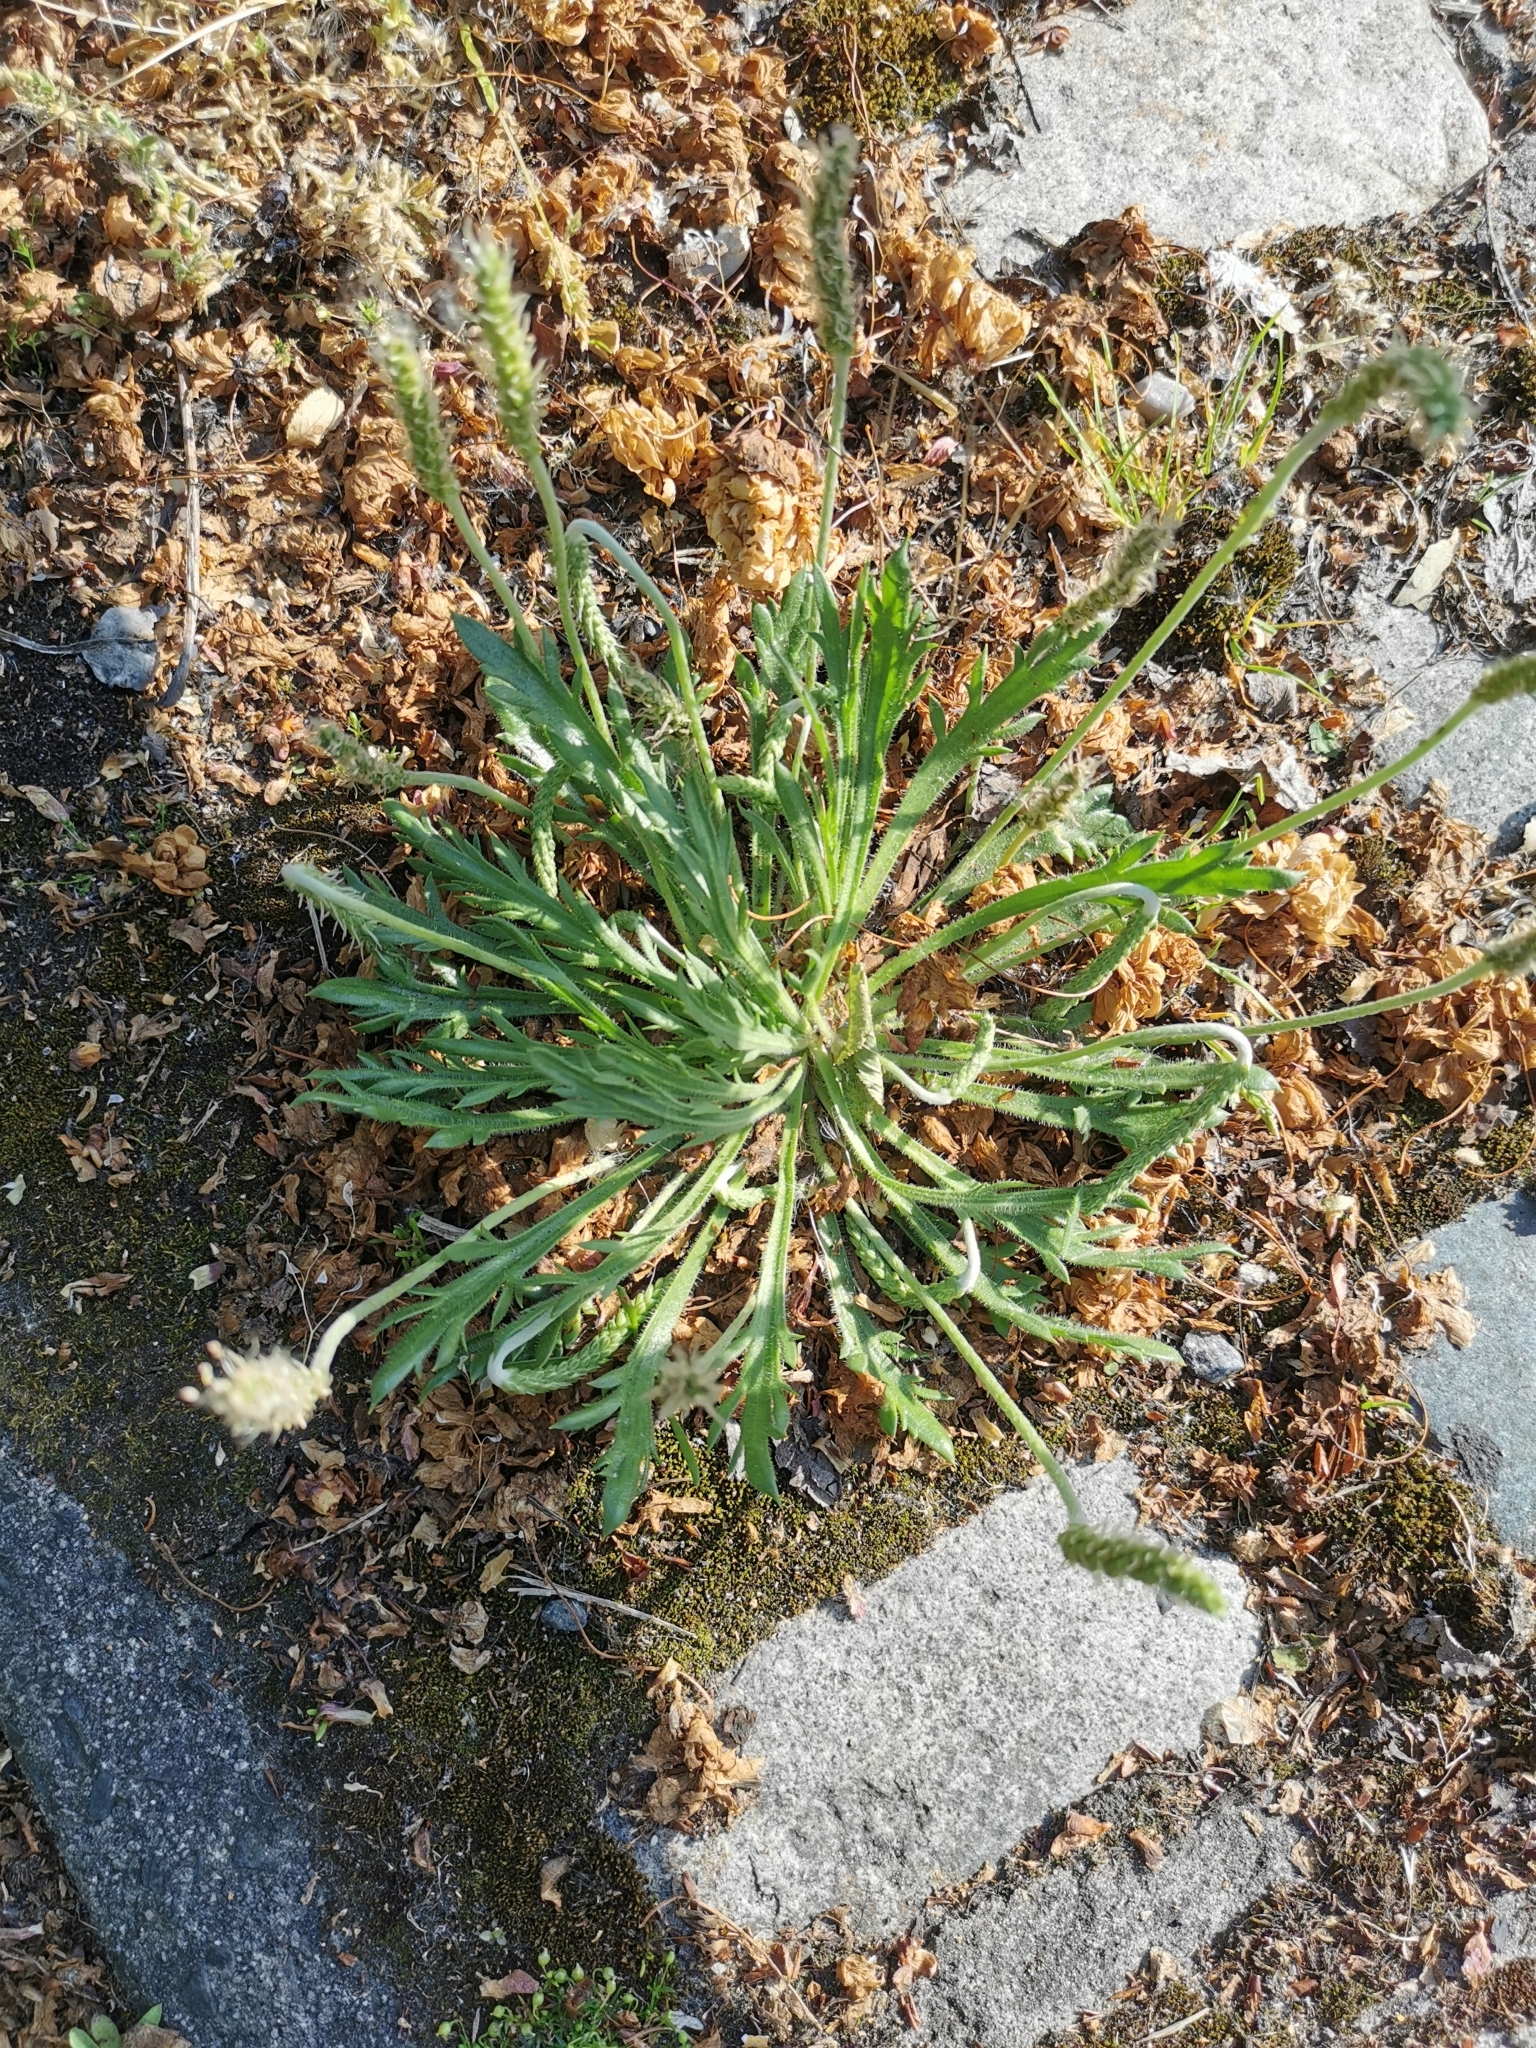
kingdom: Plantae
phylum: Tracheophyta
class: Magnoliopsida
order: Lamiales
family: Plantaginaceae
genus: Plantago
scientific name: Plantago coronopus
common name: Buck's-horn plantain
